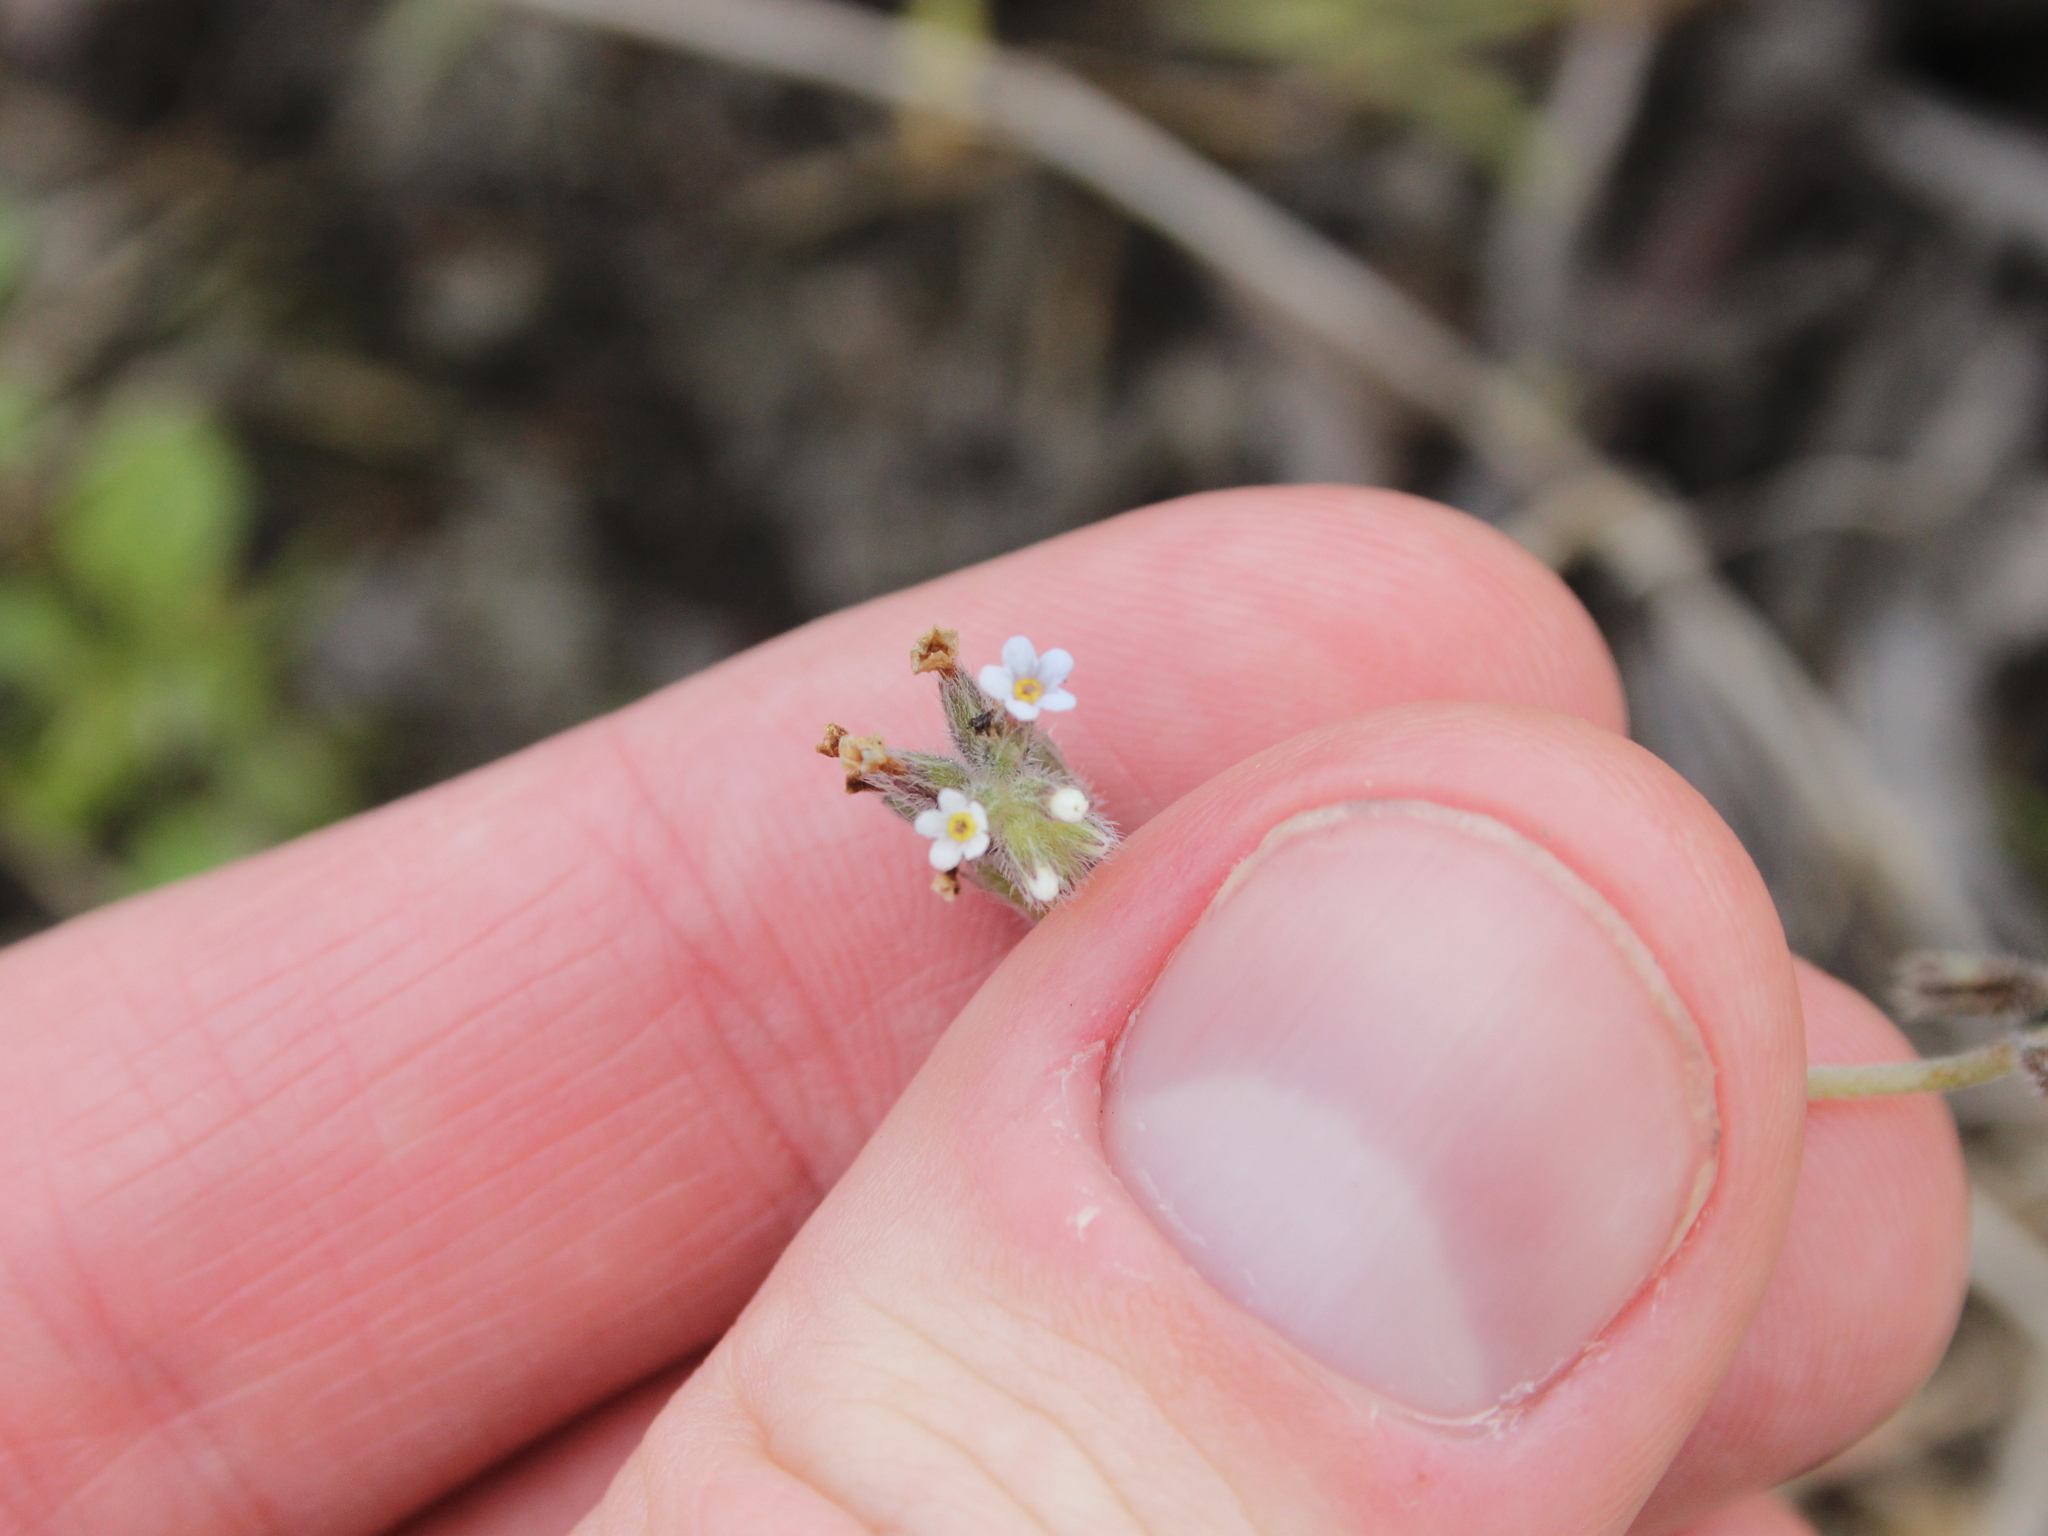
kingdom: Plantae
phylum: Tracheophyta
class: Magnoliopsida
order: Boraginales
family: Boraginaceae
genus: Myosotis
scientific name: Myosotis discolor
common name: Changing forget-me-not
